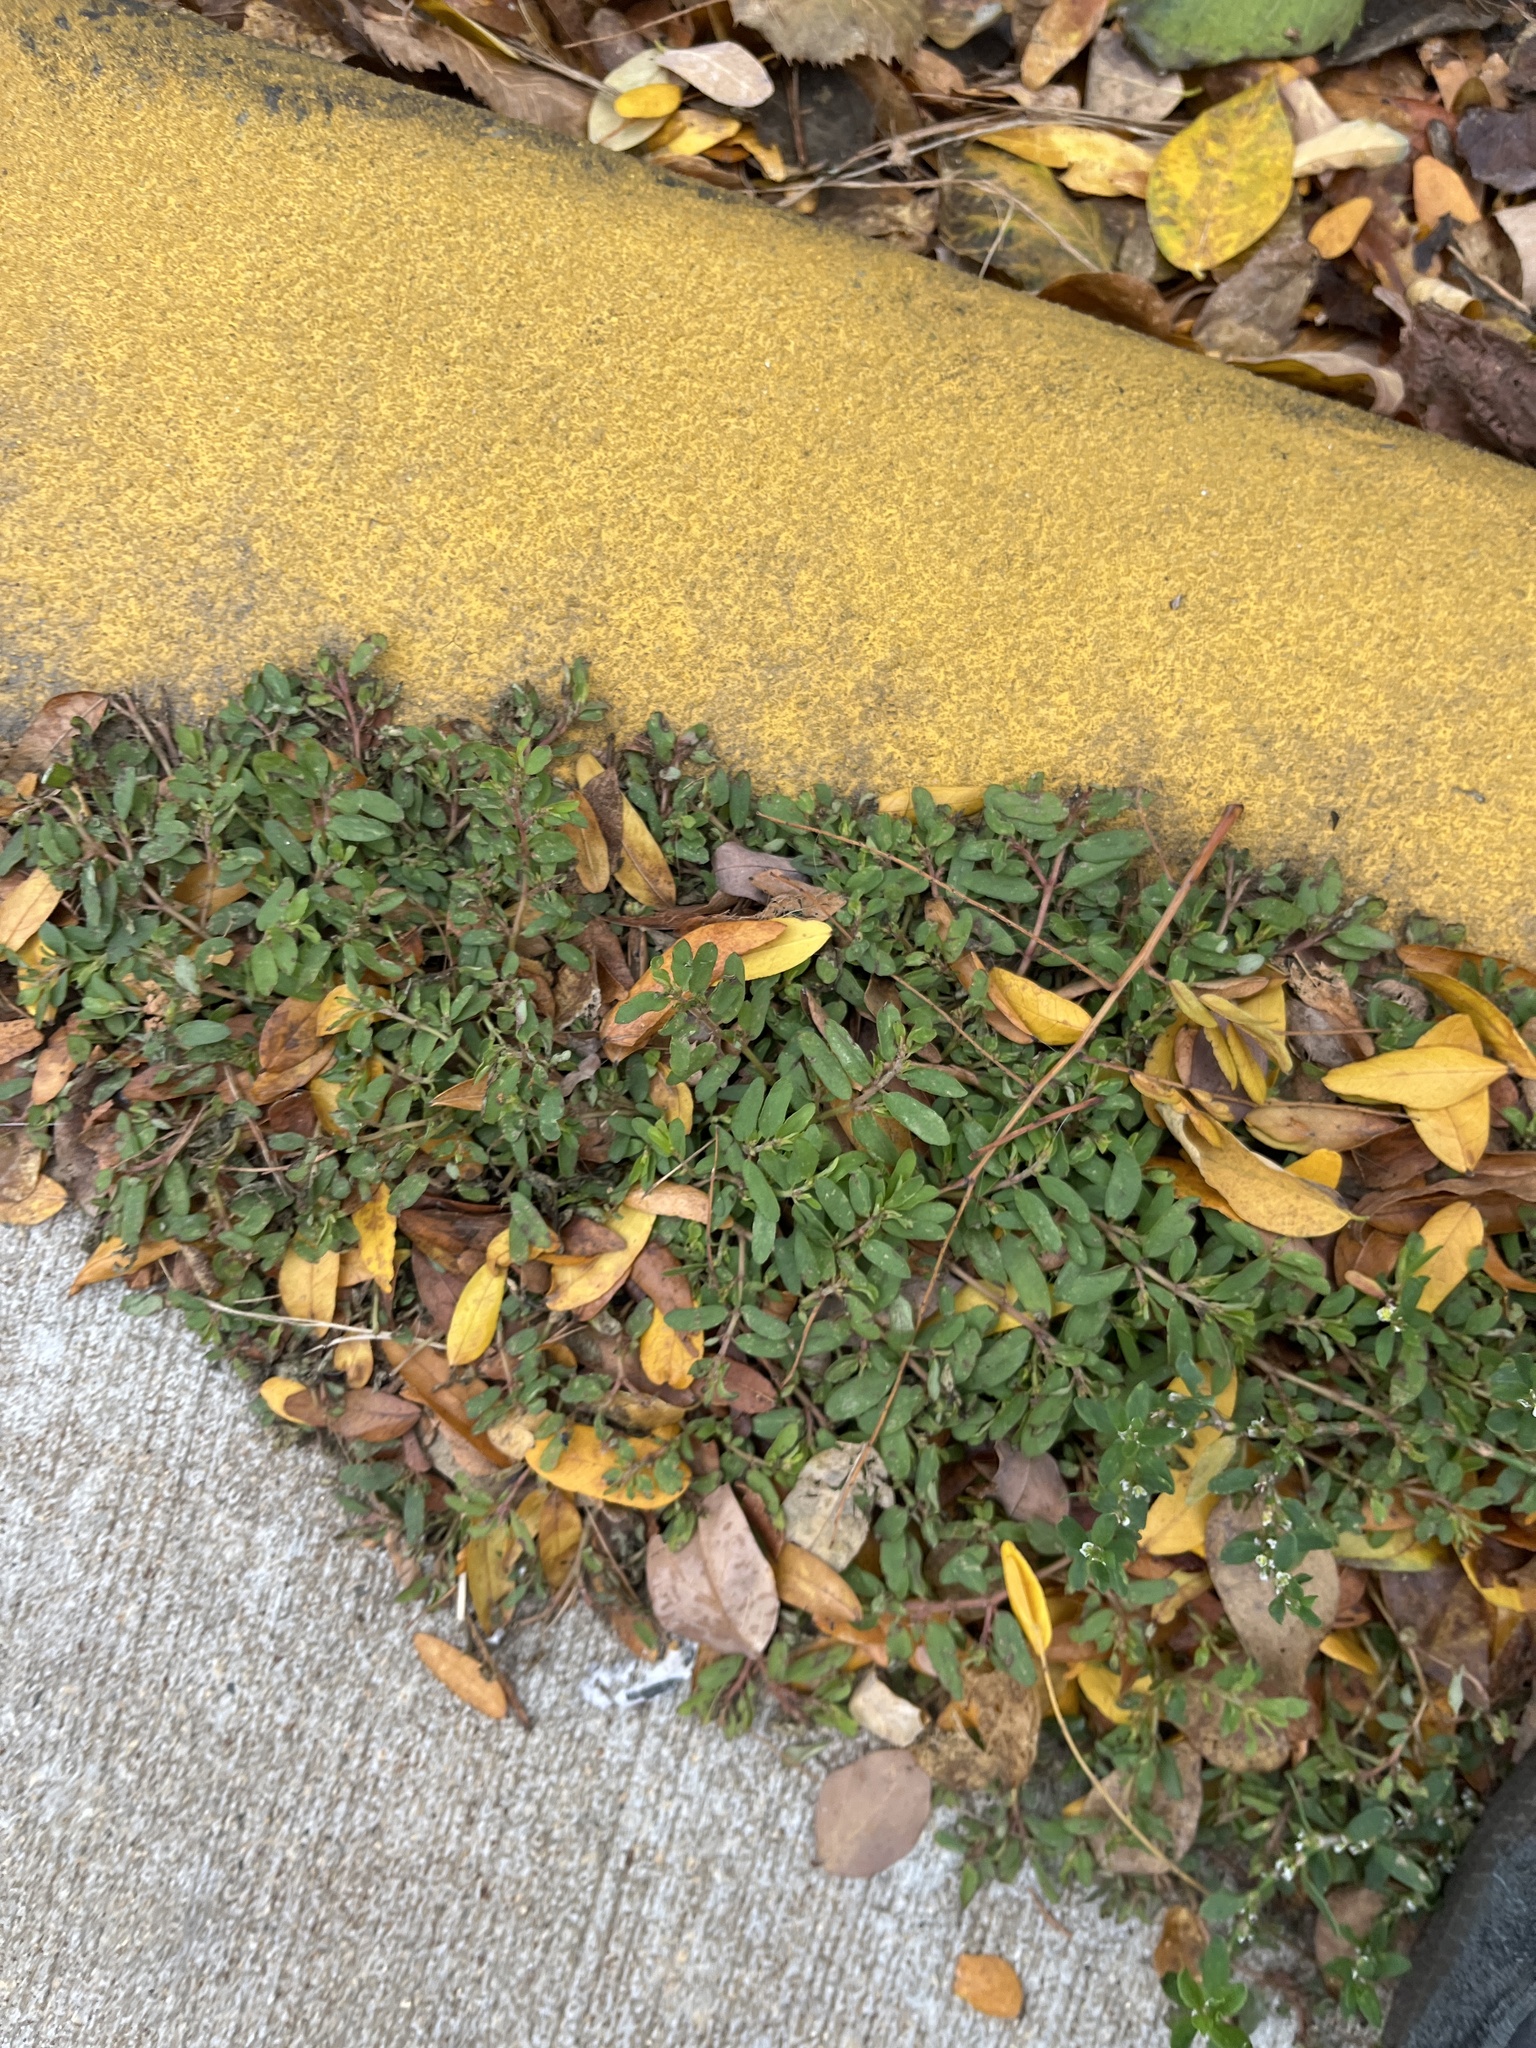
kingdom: Plantae
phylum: Tracheophyta
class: Magnoliopsida
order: Malpighiales
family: Euphorbiaceae
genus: Euphorbia
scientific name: Euphorbia maculata
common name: Spotted spurge
